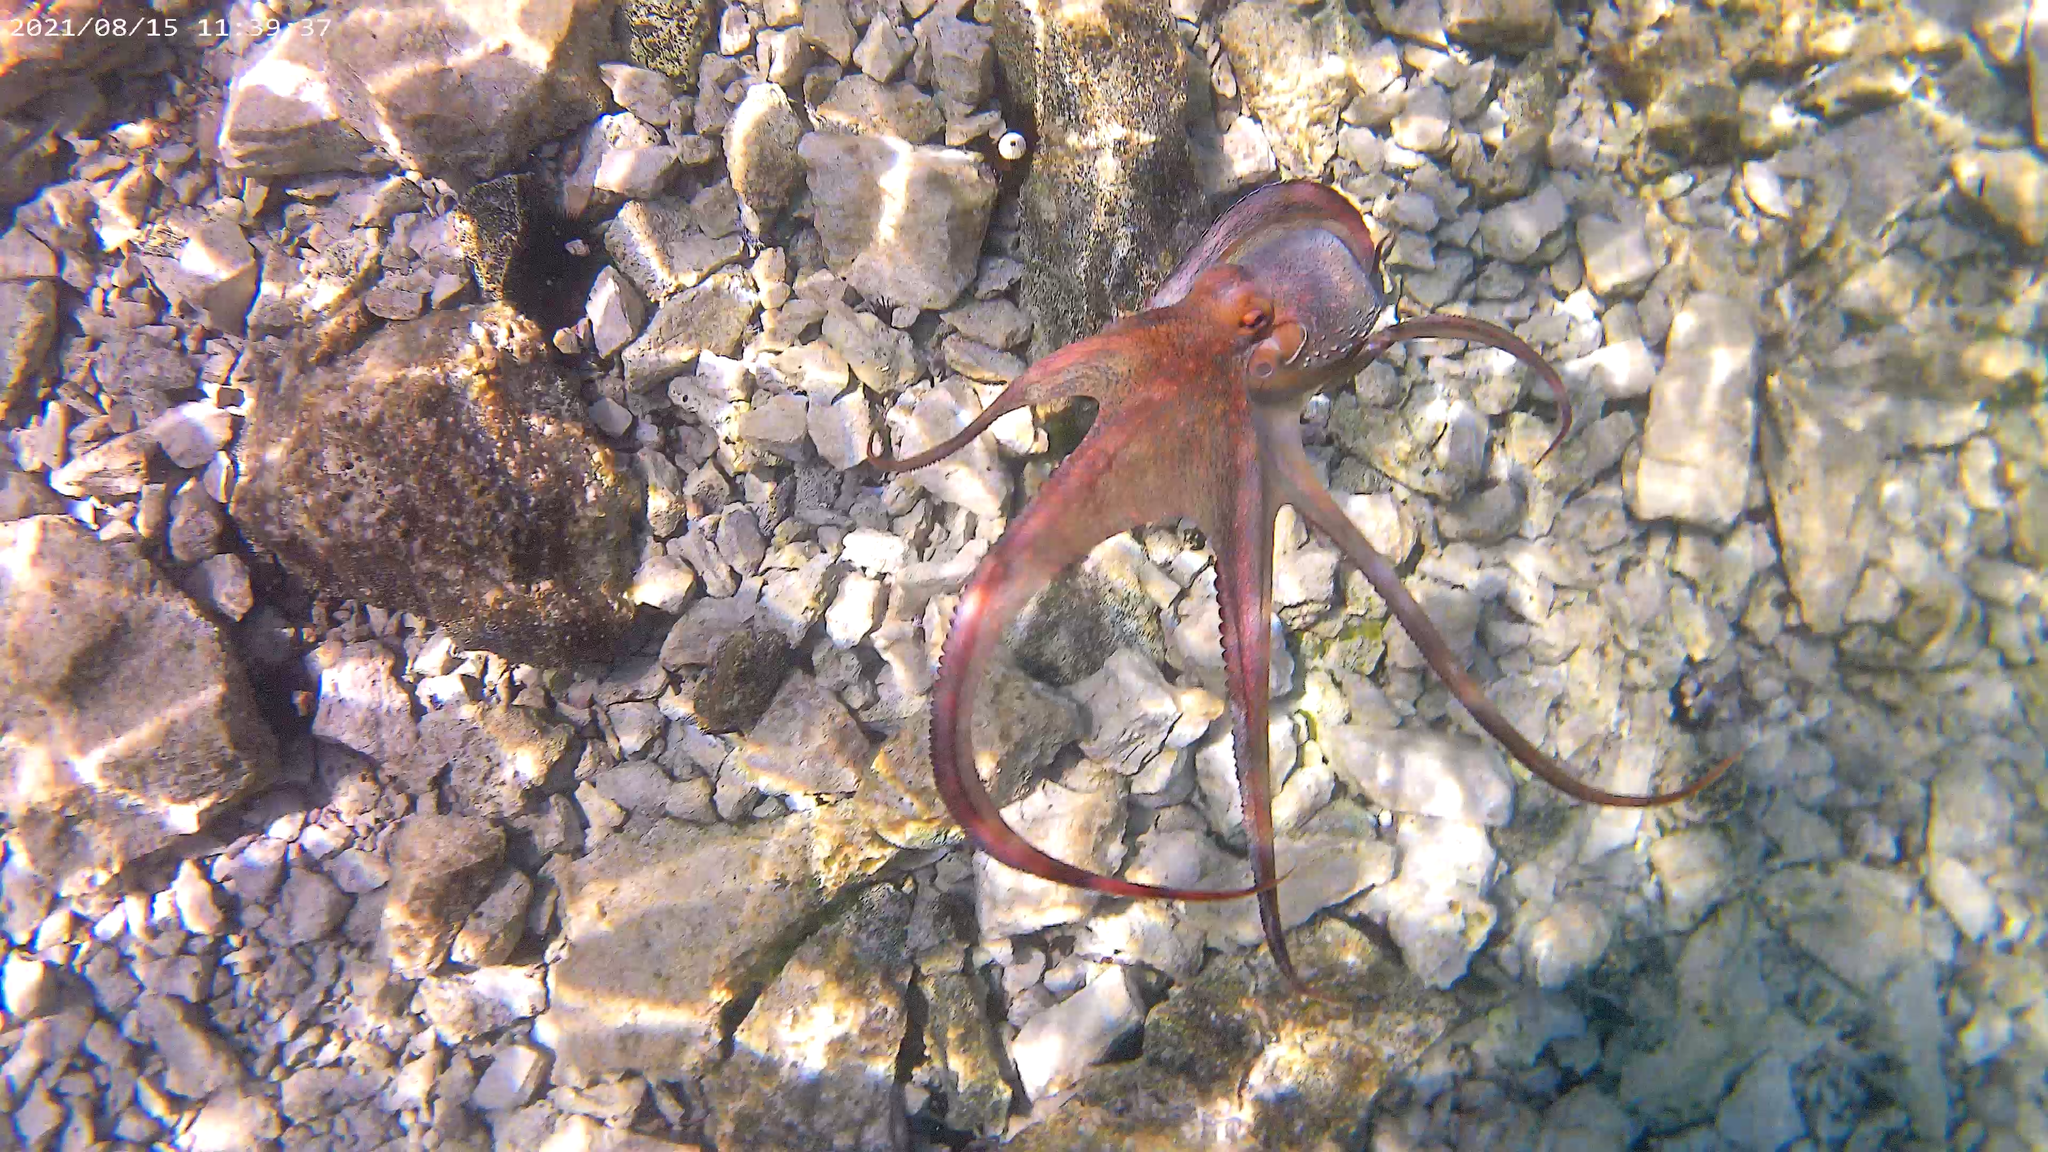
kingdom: Animalia
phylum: Mollusca
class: Cephalopoda
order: Octopoda
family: Octopodidae
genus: Octopus
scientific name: Octopus vulgaris
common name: Common octopus
